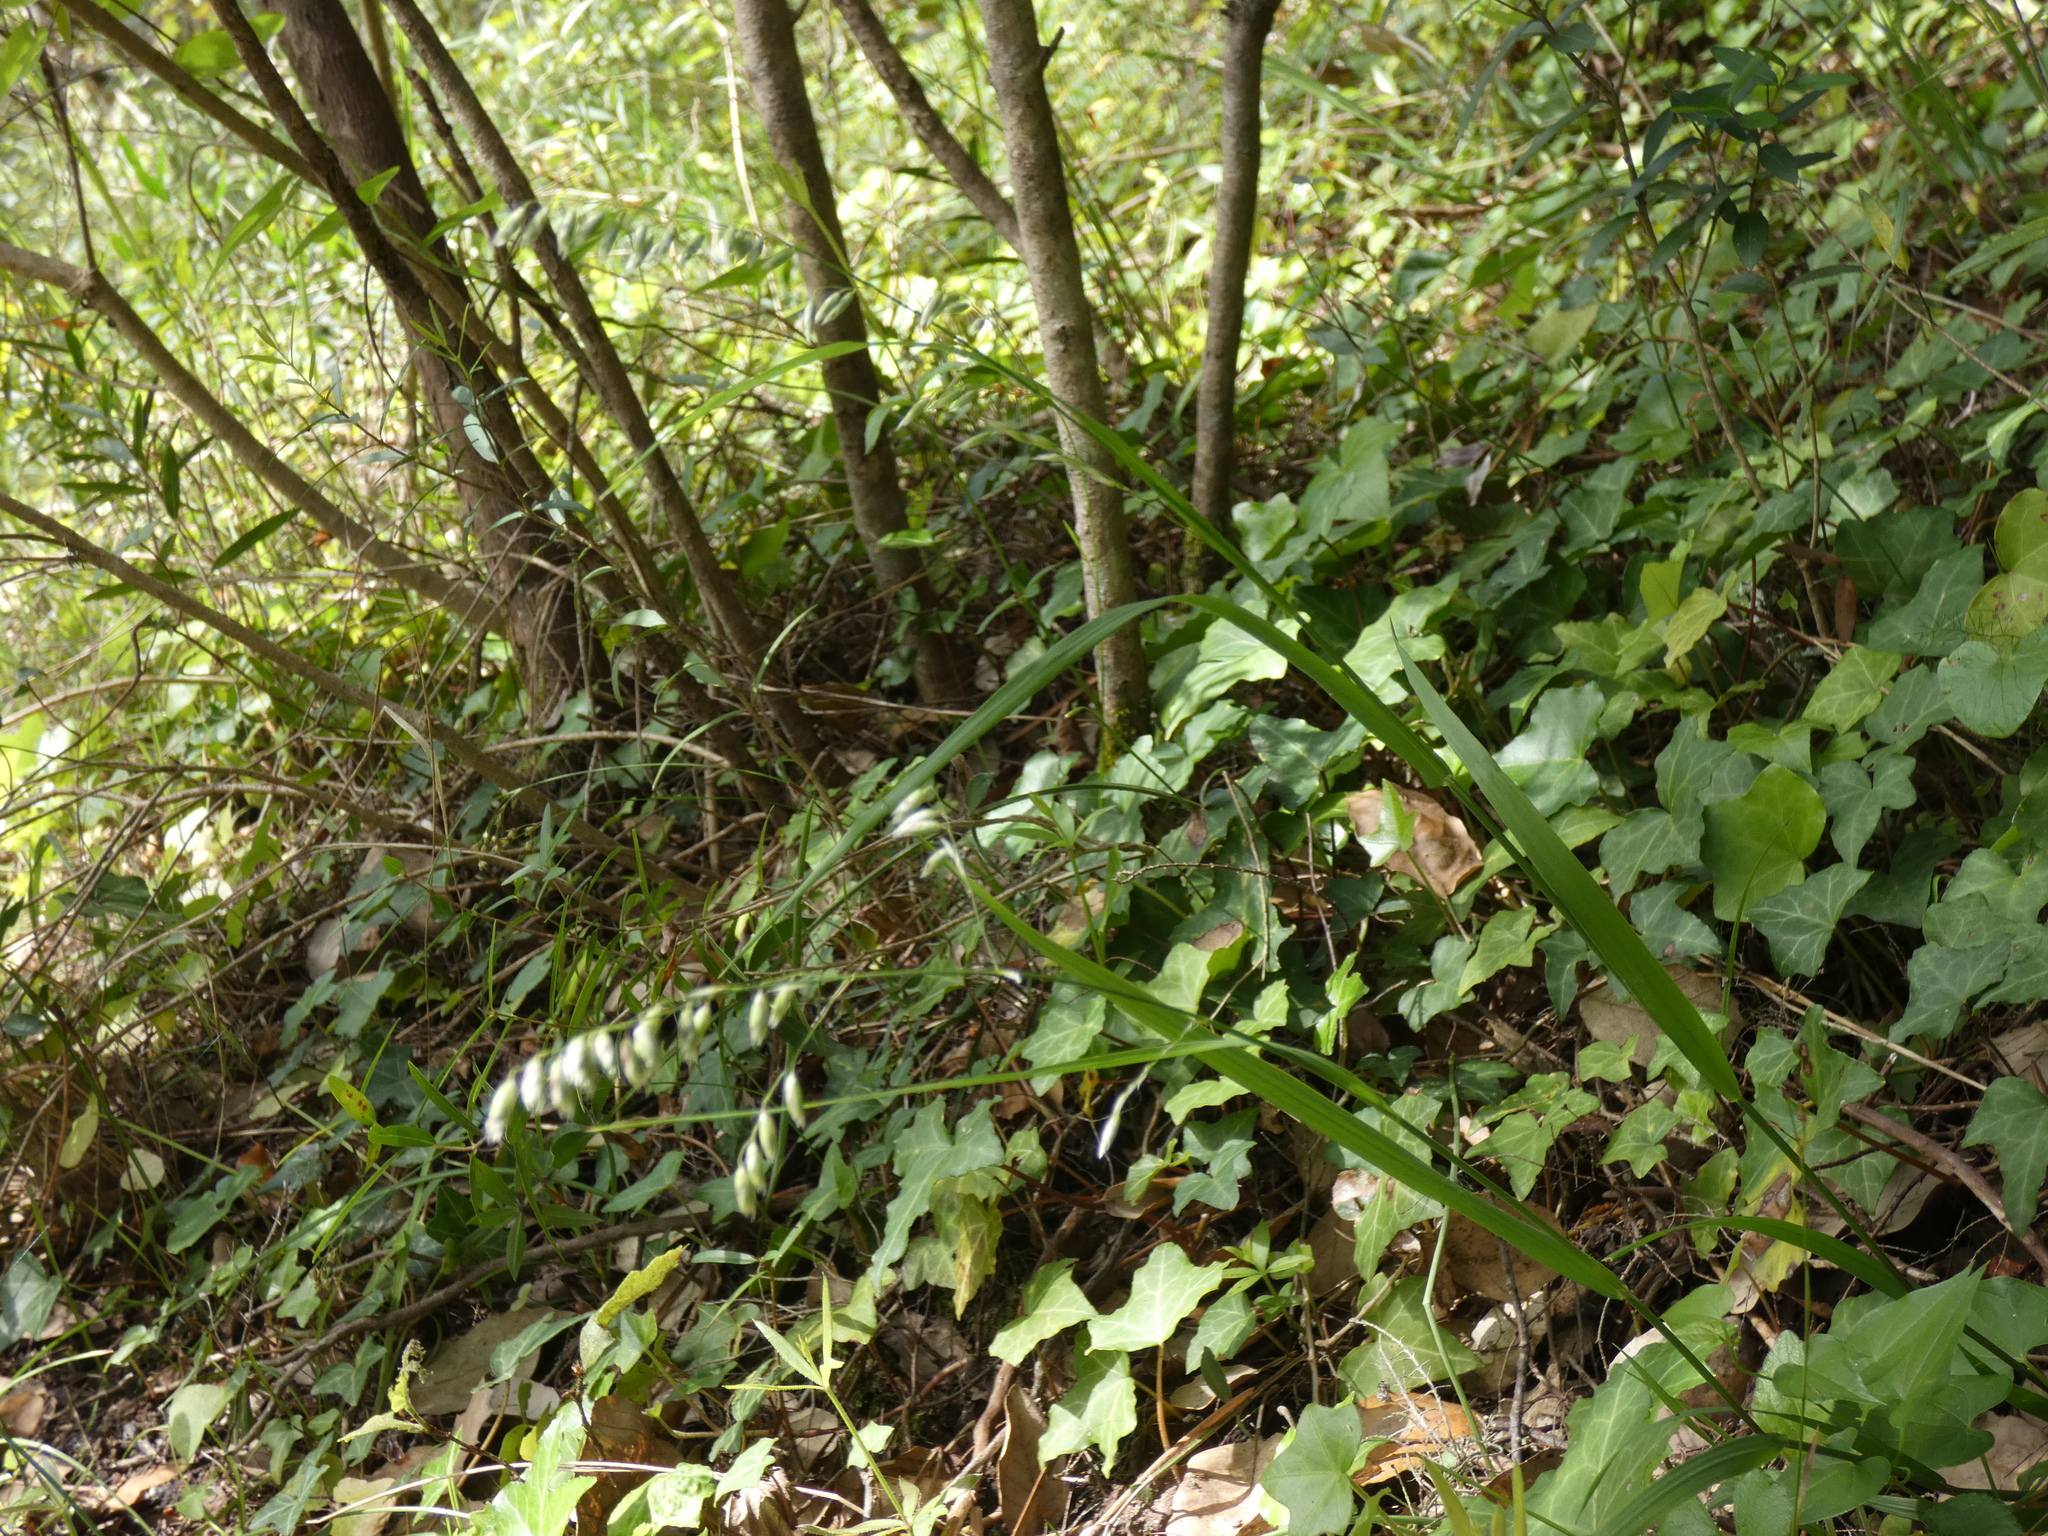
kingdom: Plantae
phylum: Tracheophyta
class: Liliopsida
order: Poales
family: Poaceae
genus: Melica
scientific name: Melica nutans
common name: Mountain melick
